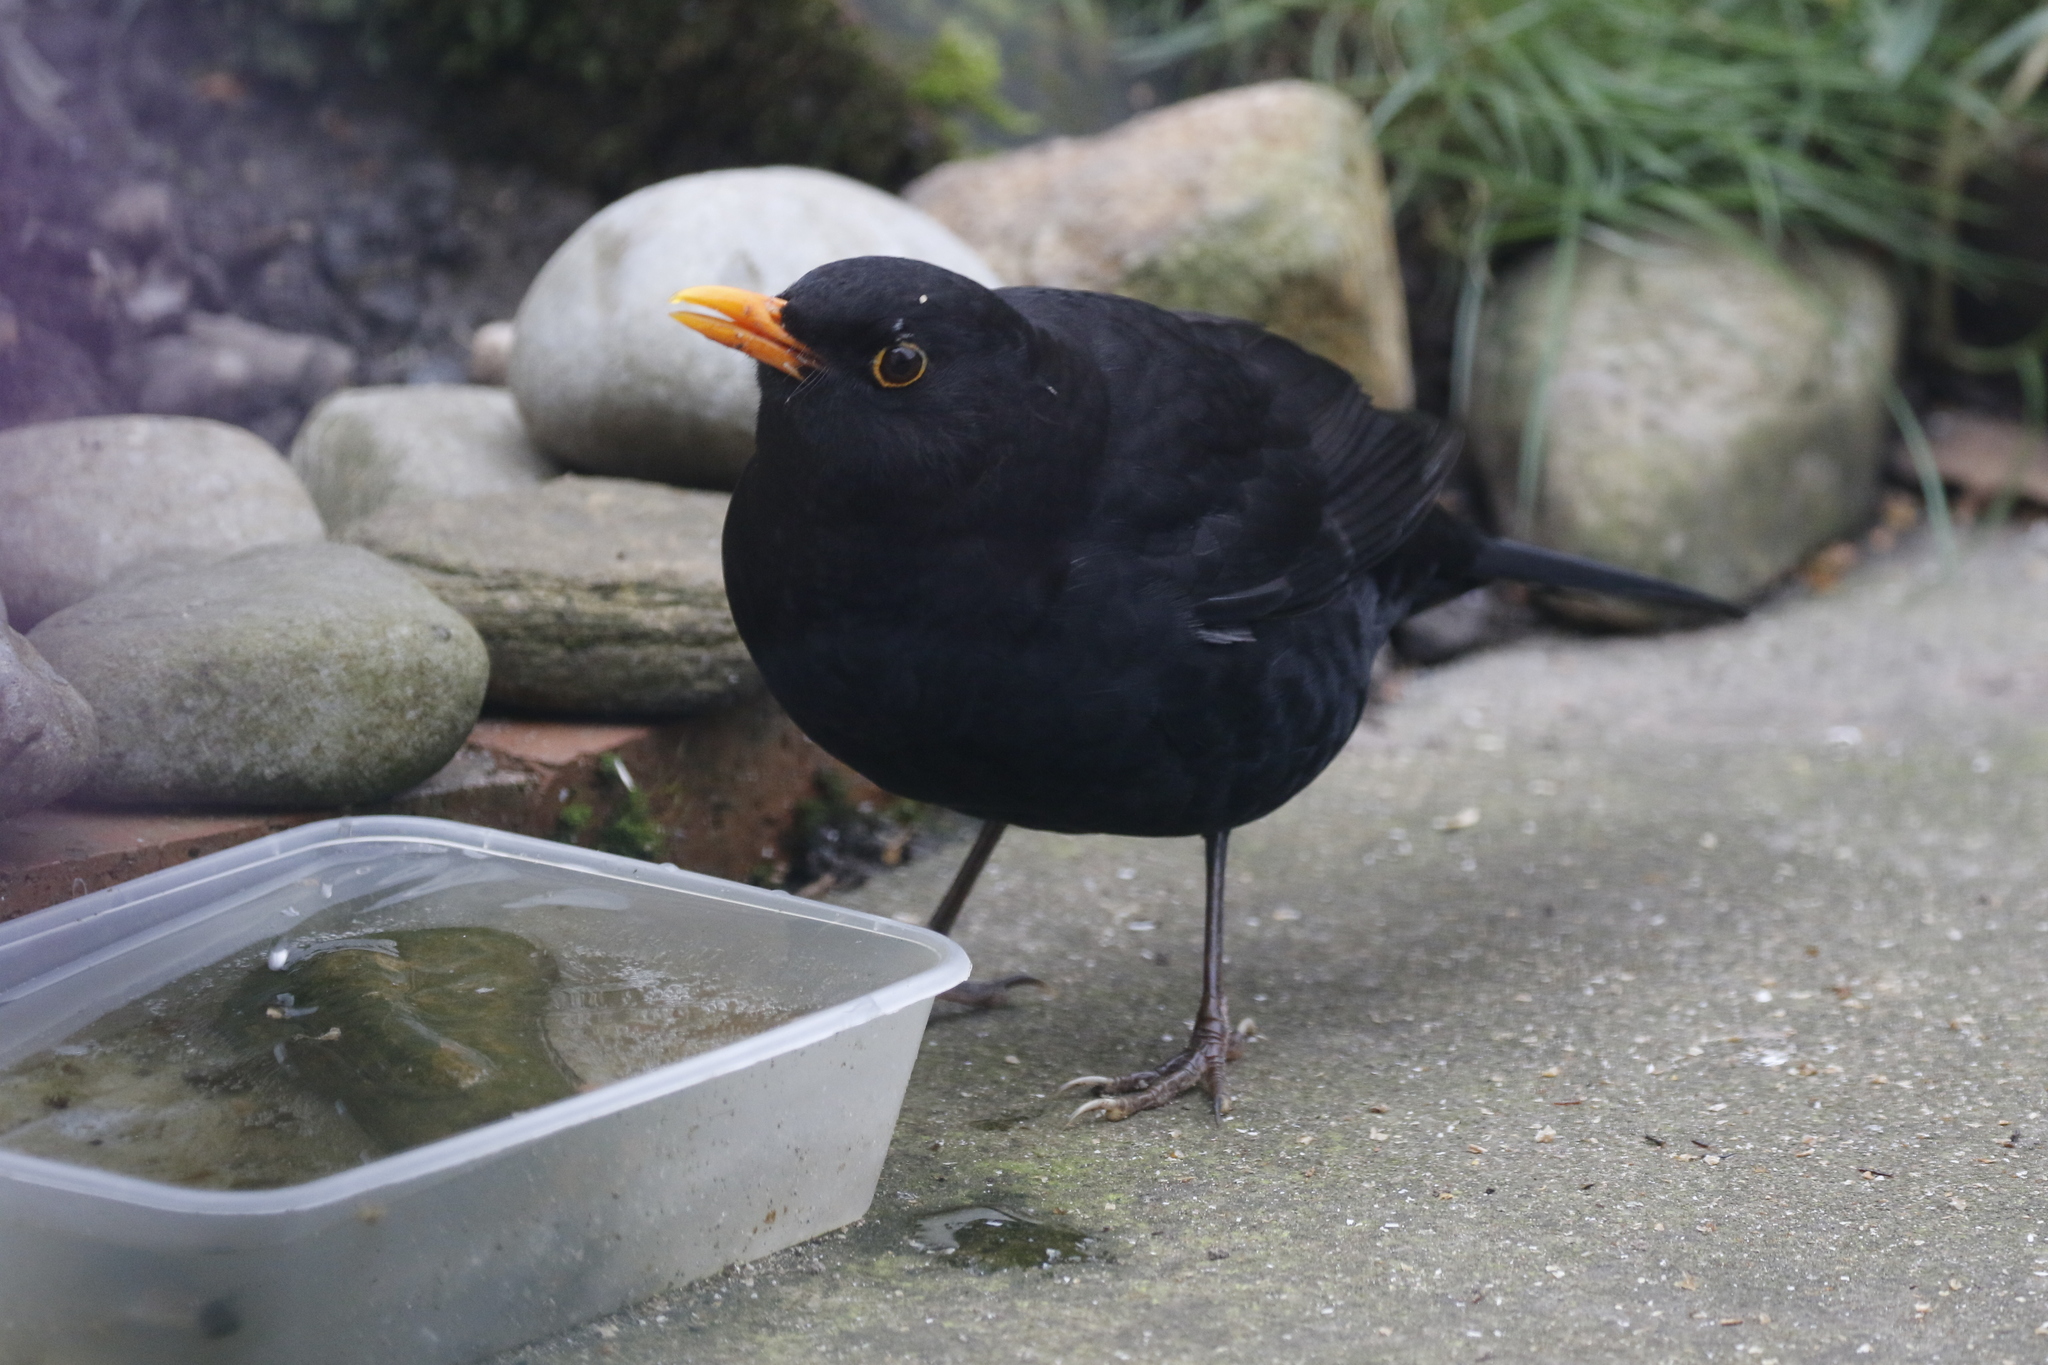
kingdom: Animalia
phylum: Chordata
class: Aves
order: Passeriformes
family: Turdidae
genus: Turdus
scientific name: Turdus merula
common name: Common blackbird
